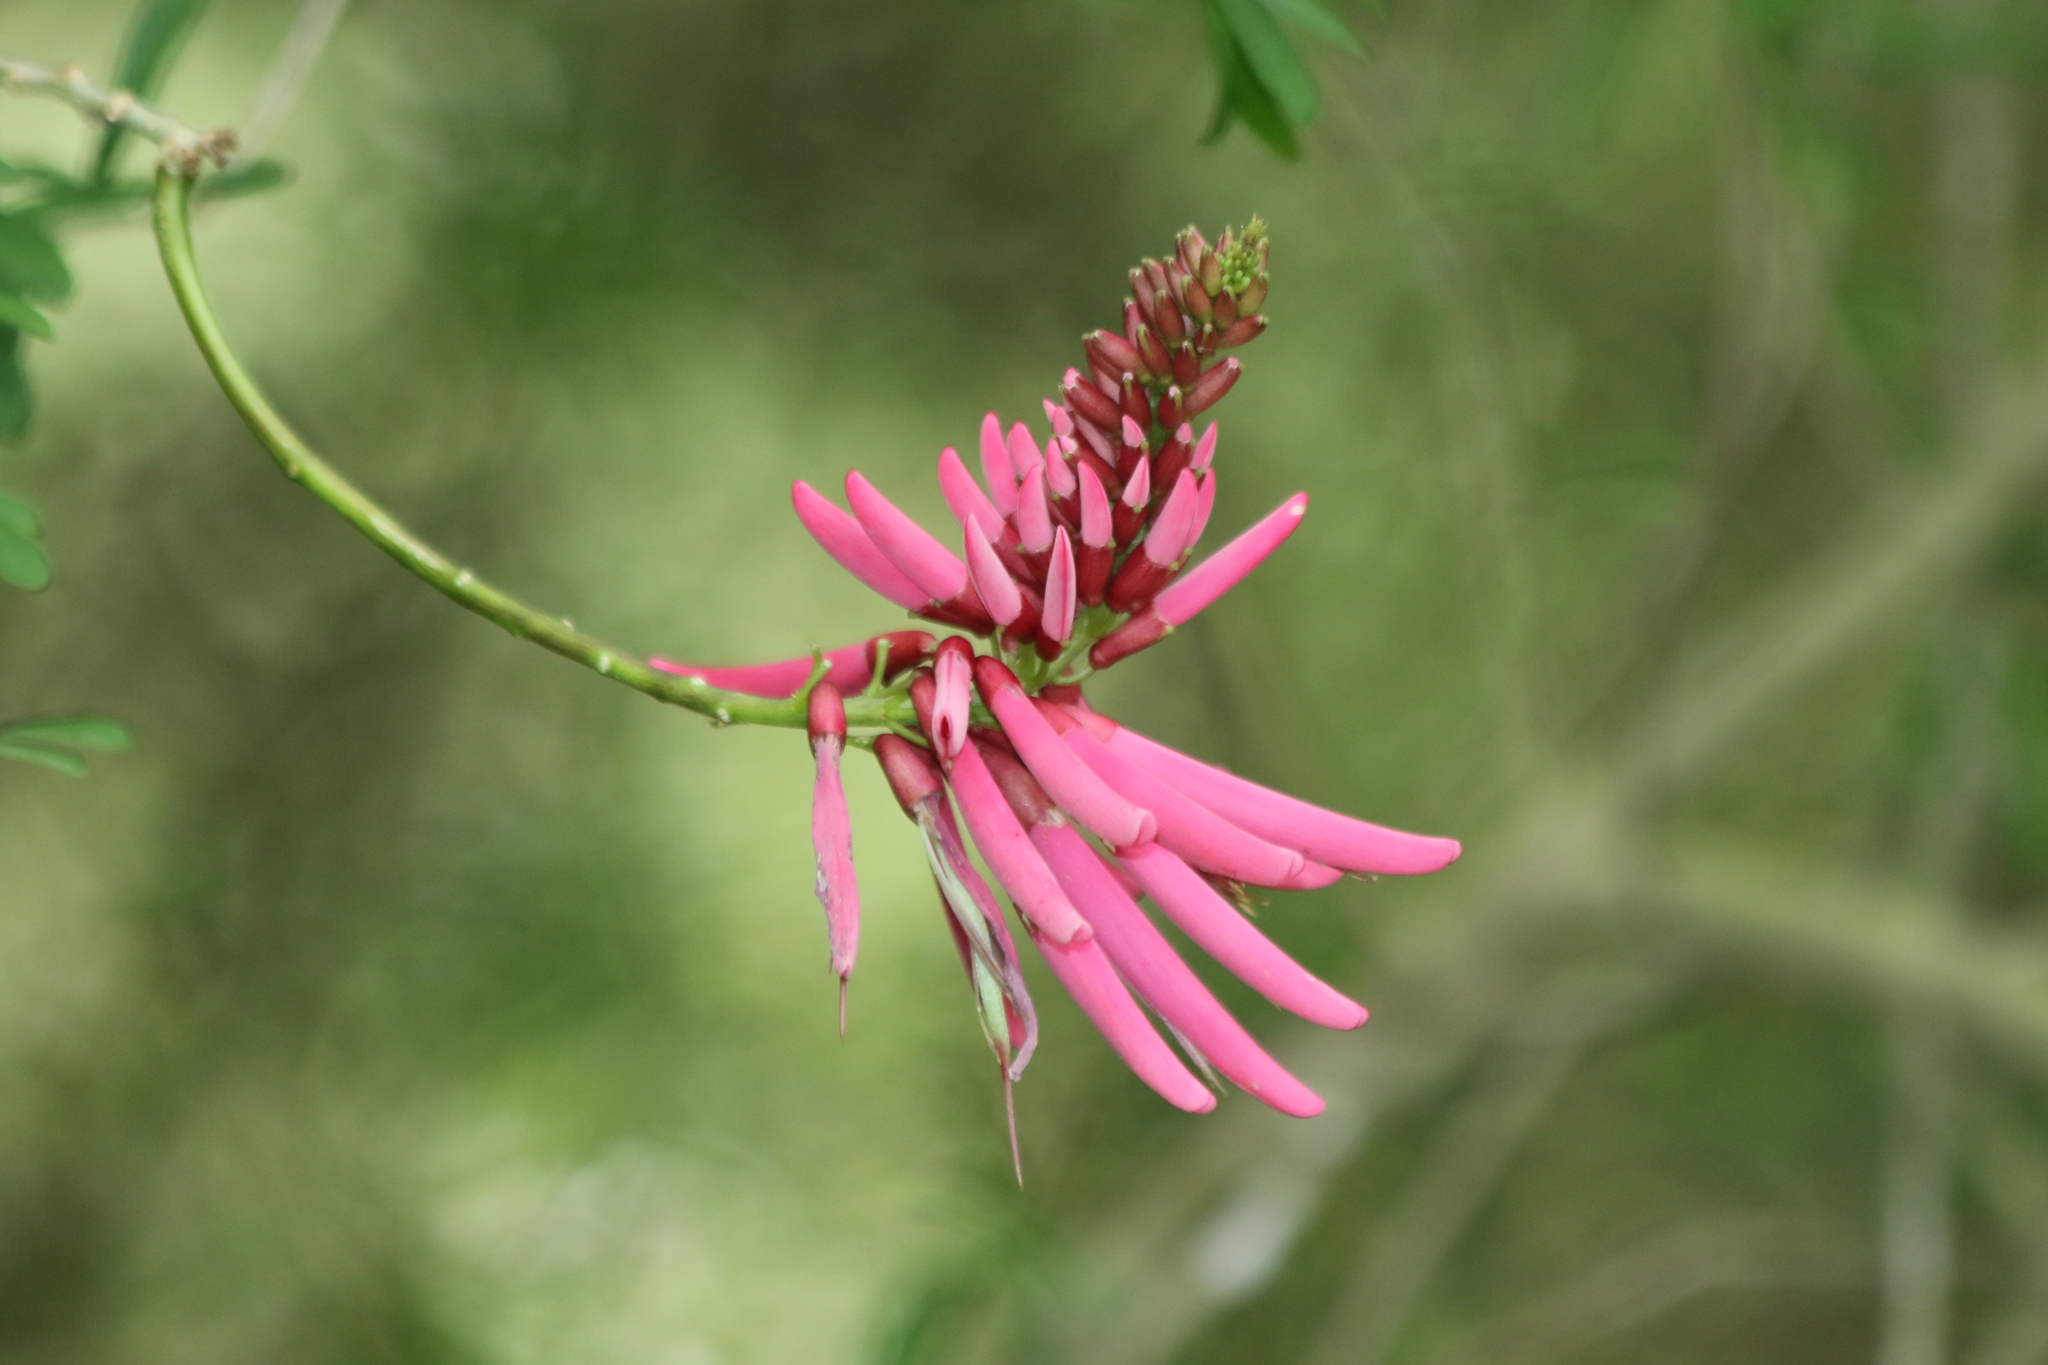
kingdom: Plantae
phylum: Tracheophyta
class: Magnoliopsida
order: Fabales
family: Fabaceae
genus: Erythrina
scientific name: Erythrina herbacea
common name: Coral-bean
